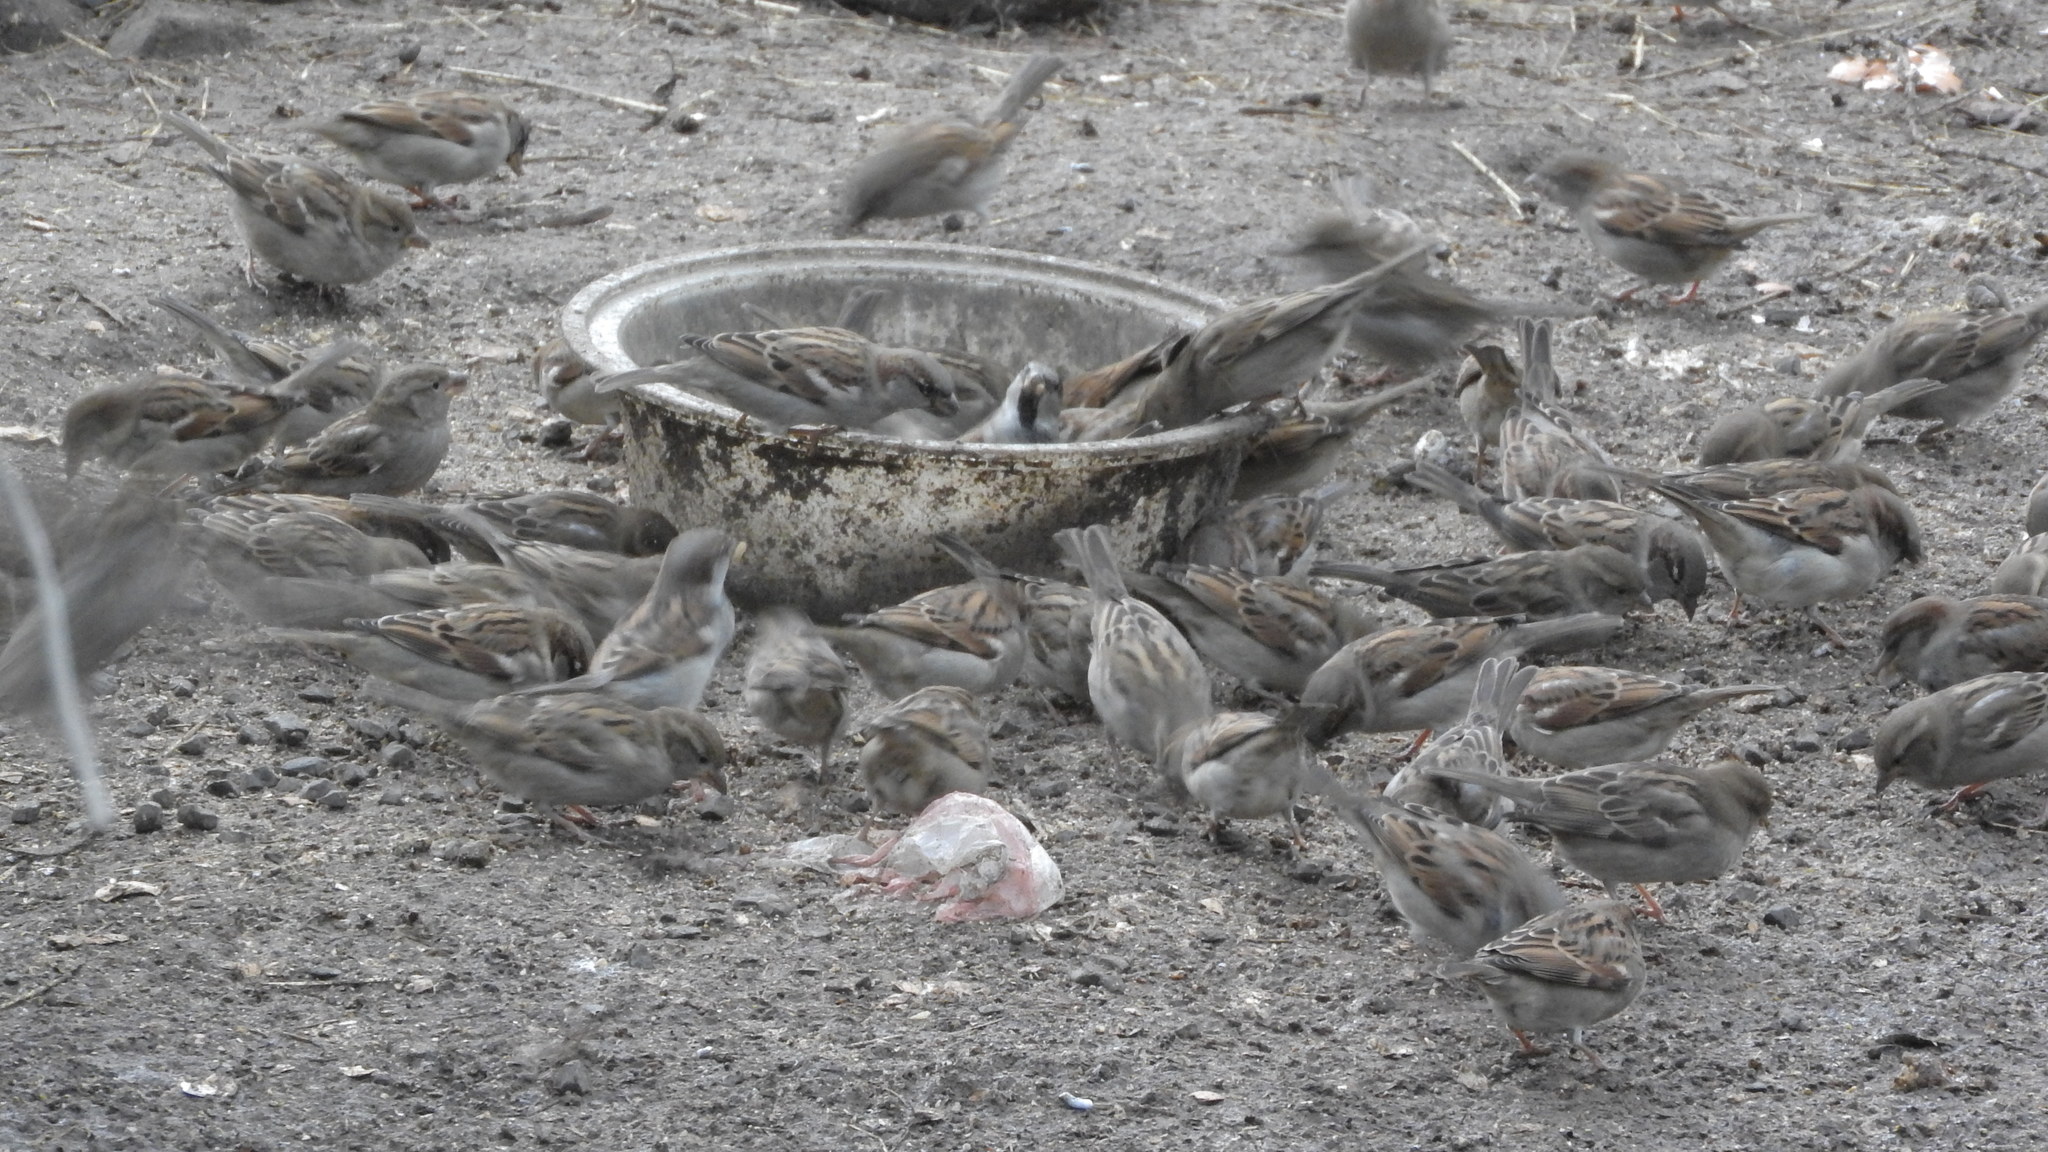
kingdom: Animalia
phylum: Chordata
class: Aves
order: Passeriformes
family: Passeridae
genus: Passer
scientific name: Passer domesticus
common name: House sparrow
